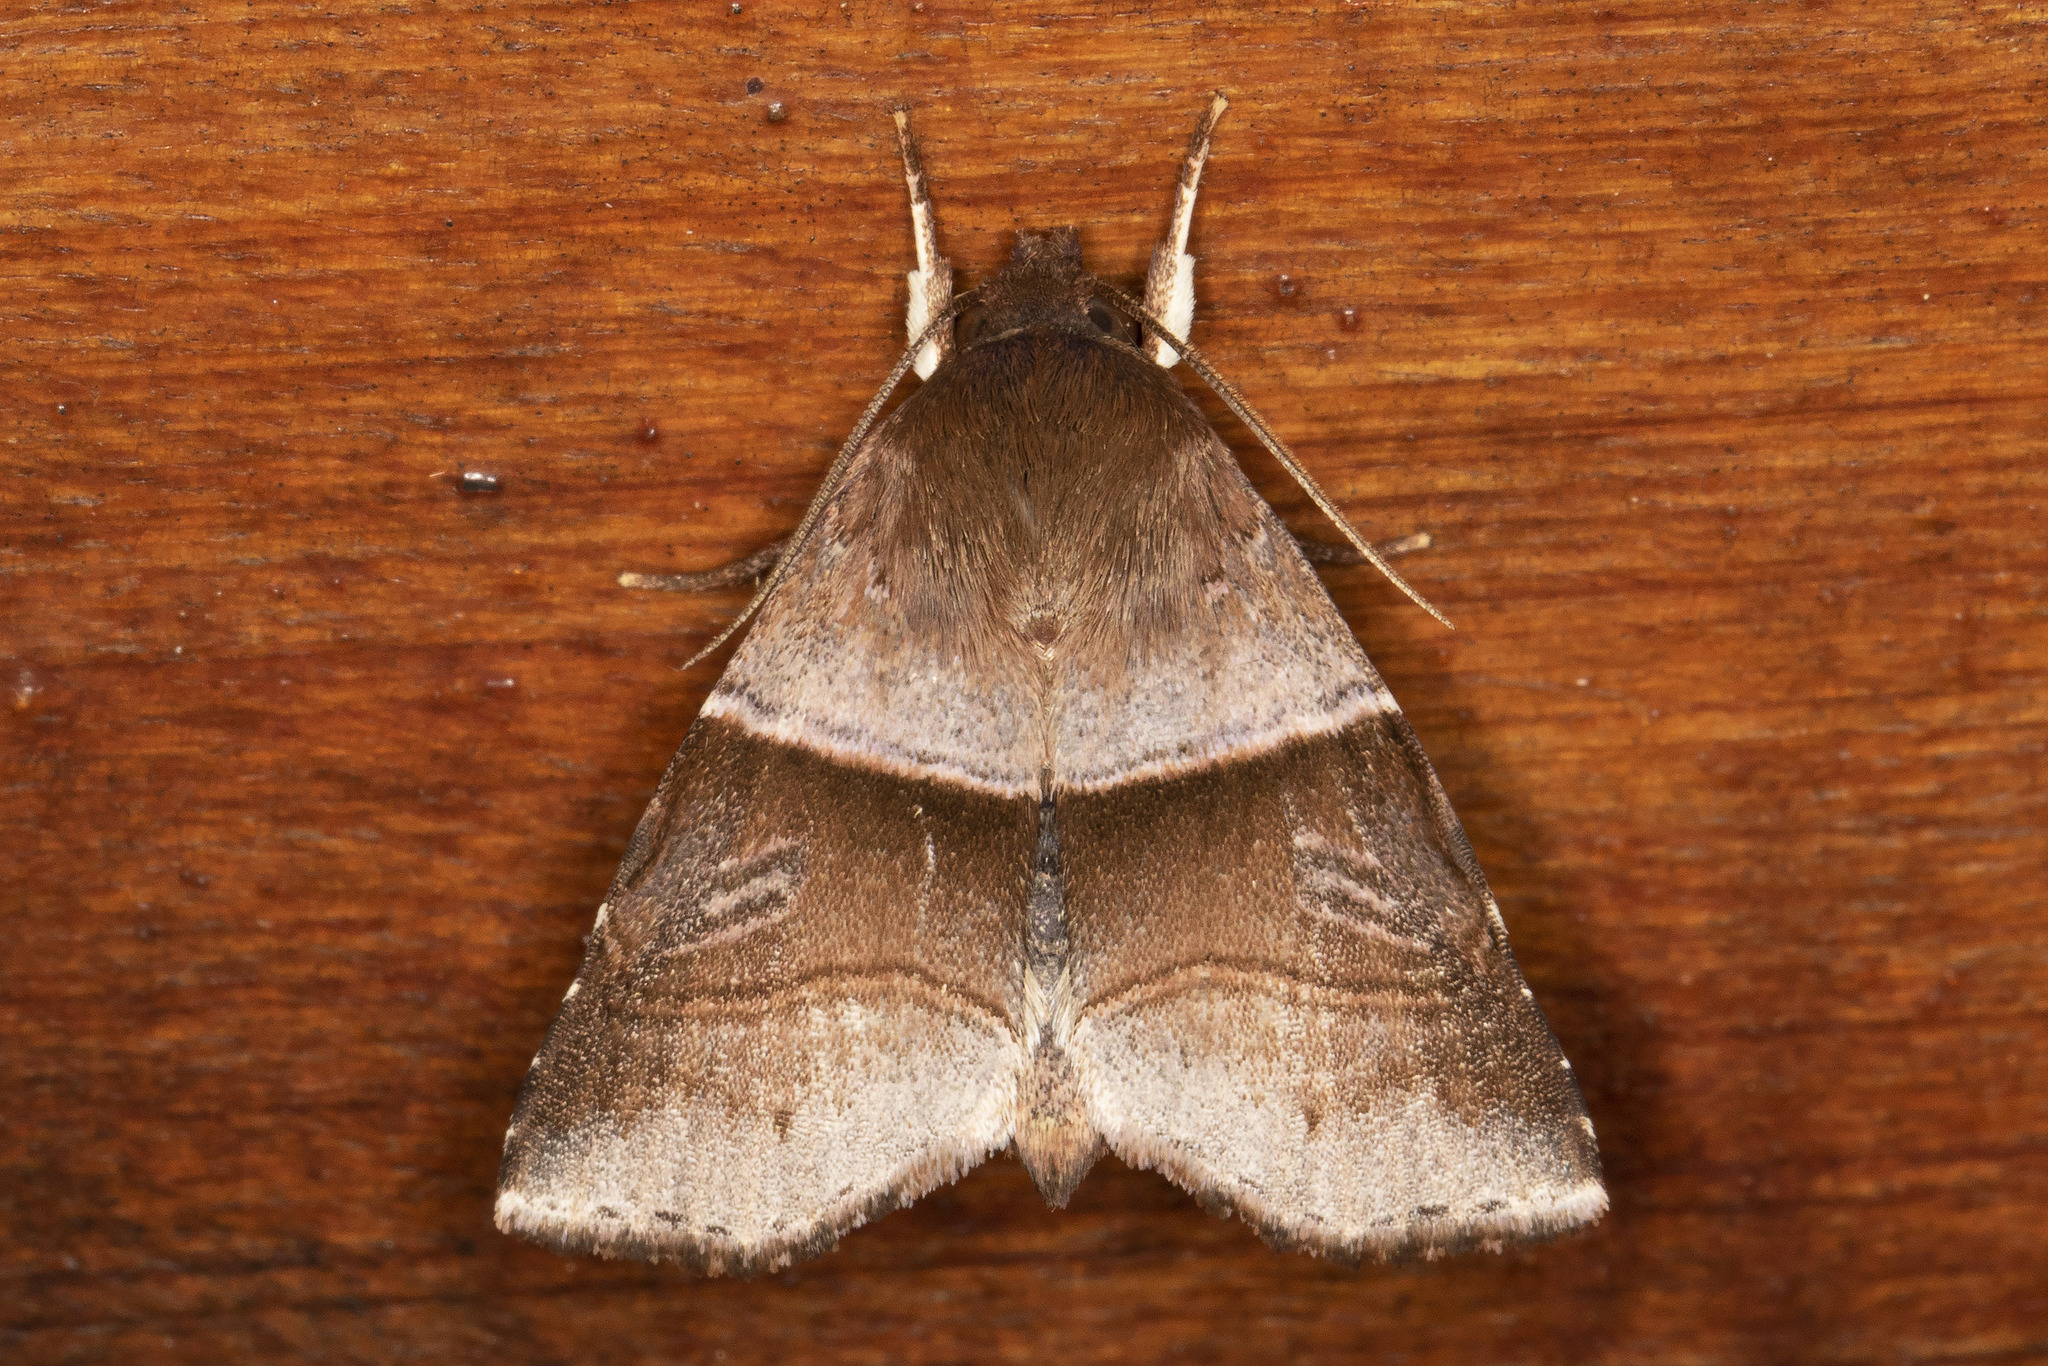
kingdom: Animalia
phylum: Arthropoda
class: Insecta
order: Lepidoptera
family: Noctuidae
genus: Phuphena
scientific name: Phuphena transversa
